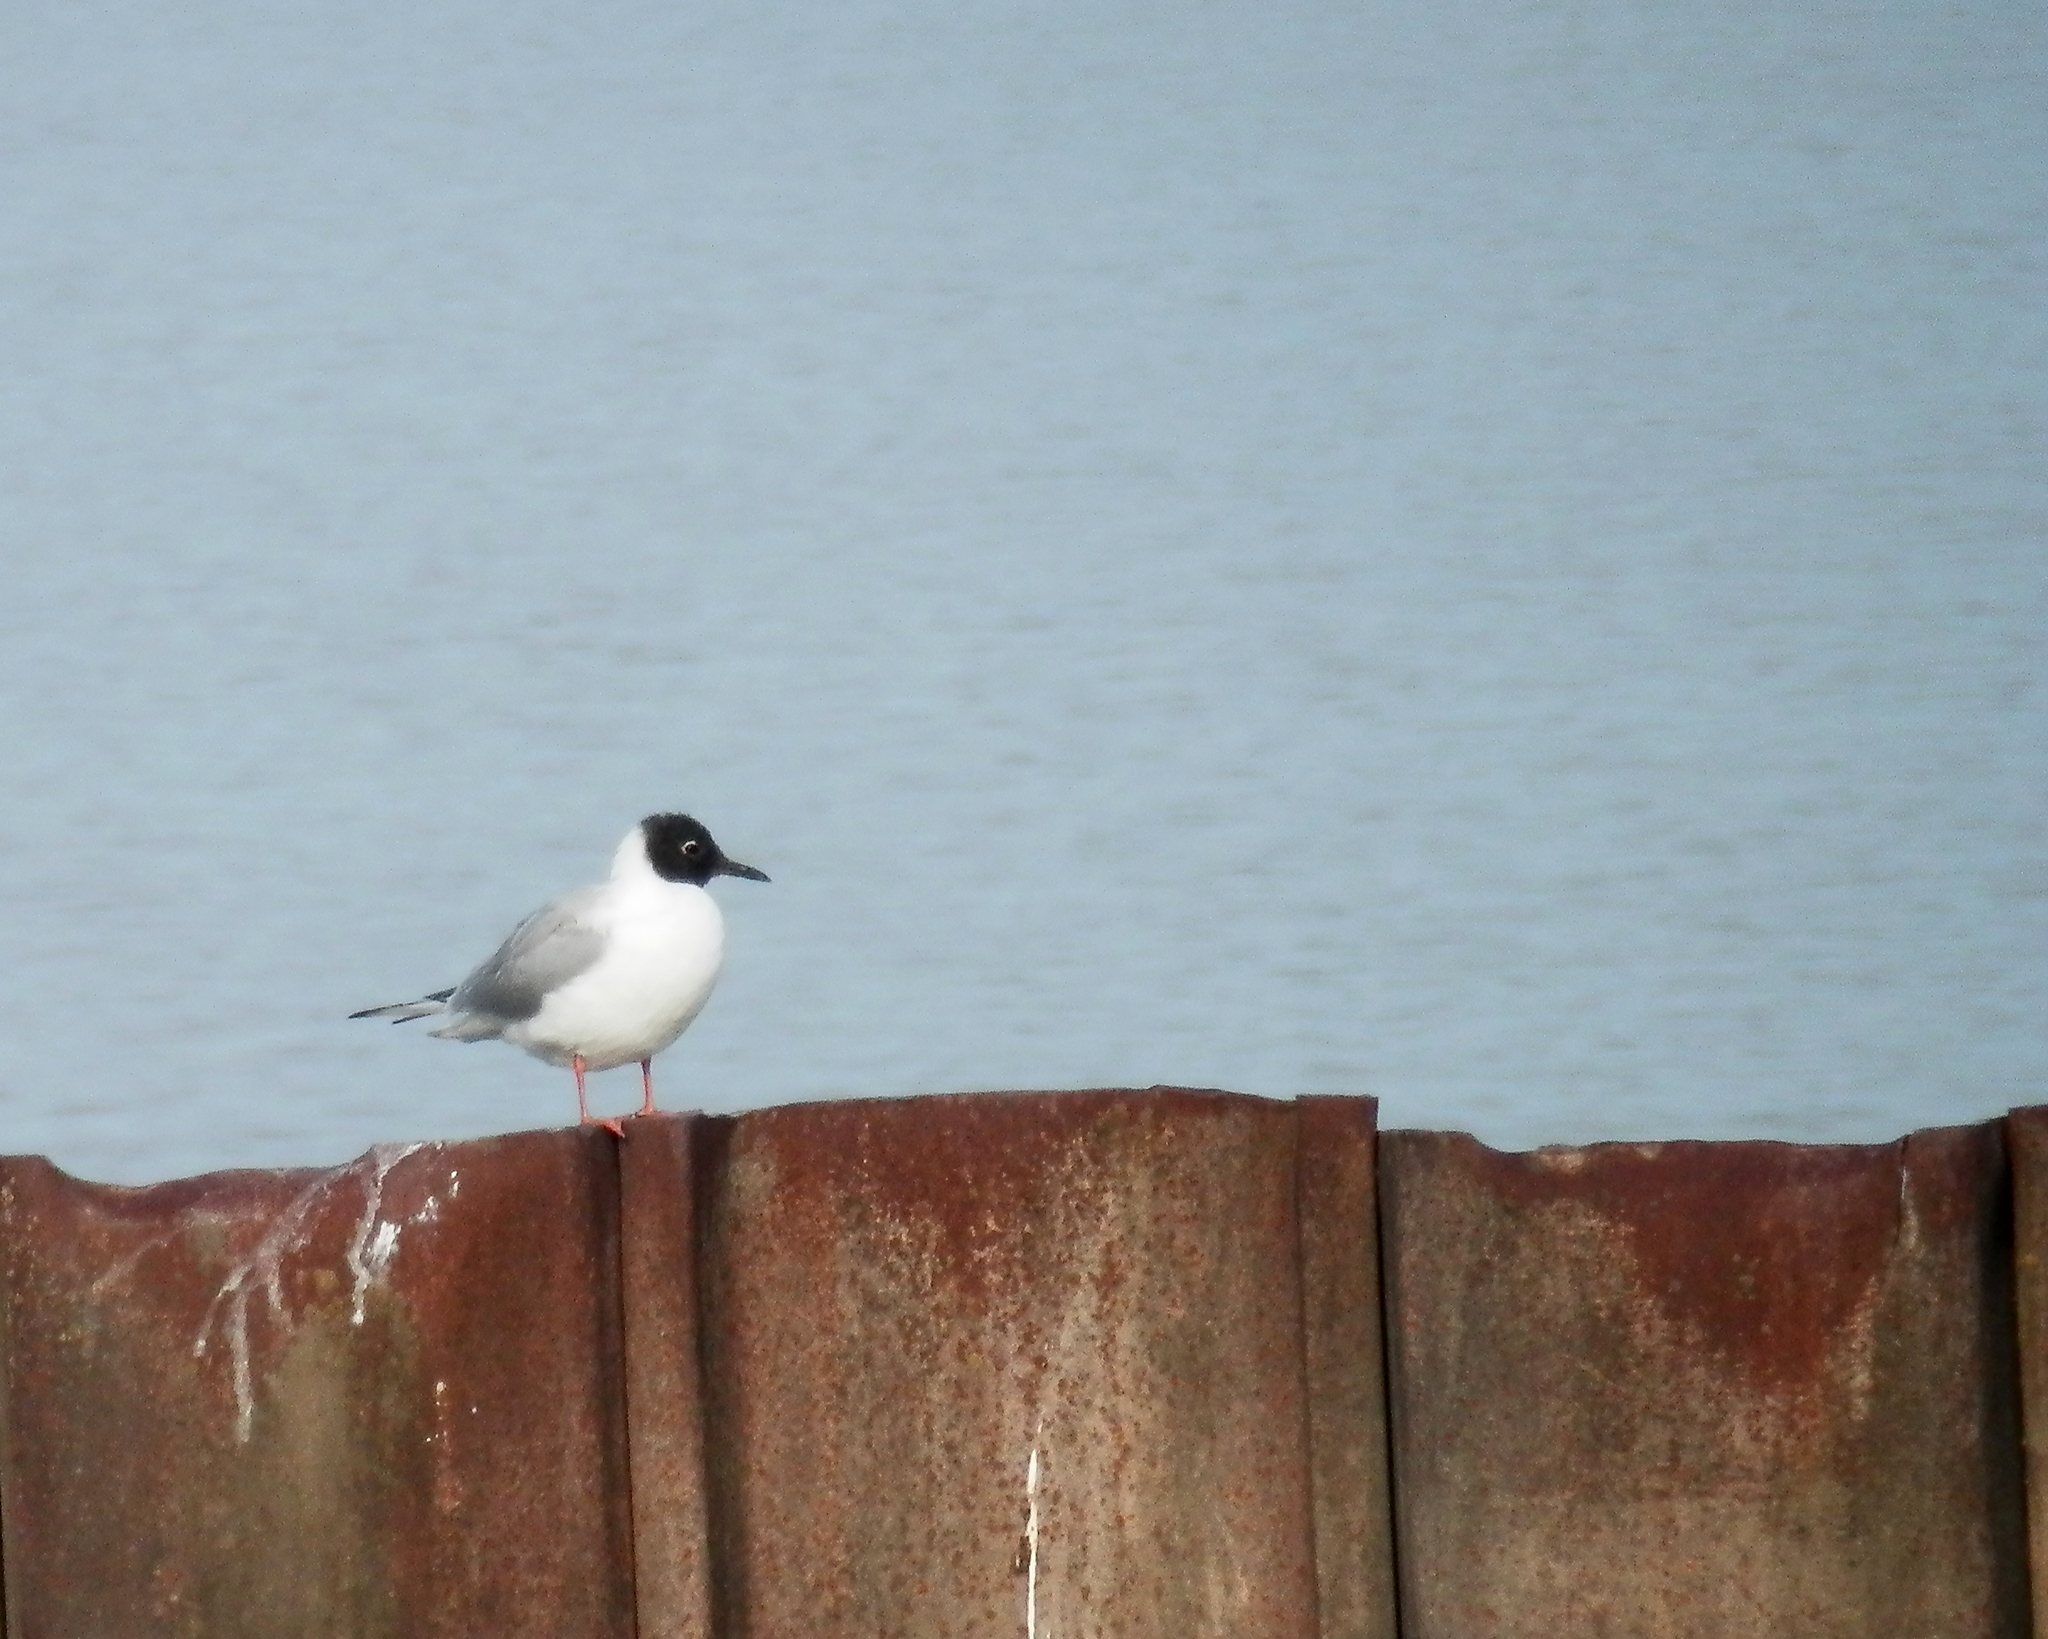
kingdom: Animalia
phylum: Chordata
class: Aves
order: Charadriiformes
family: Laridae
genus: Chroicocephalus
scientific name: Chroicocephalus philadelphia
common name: Bonaparte's gull
